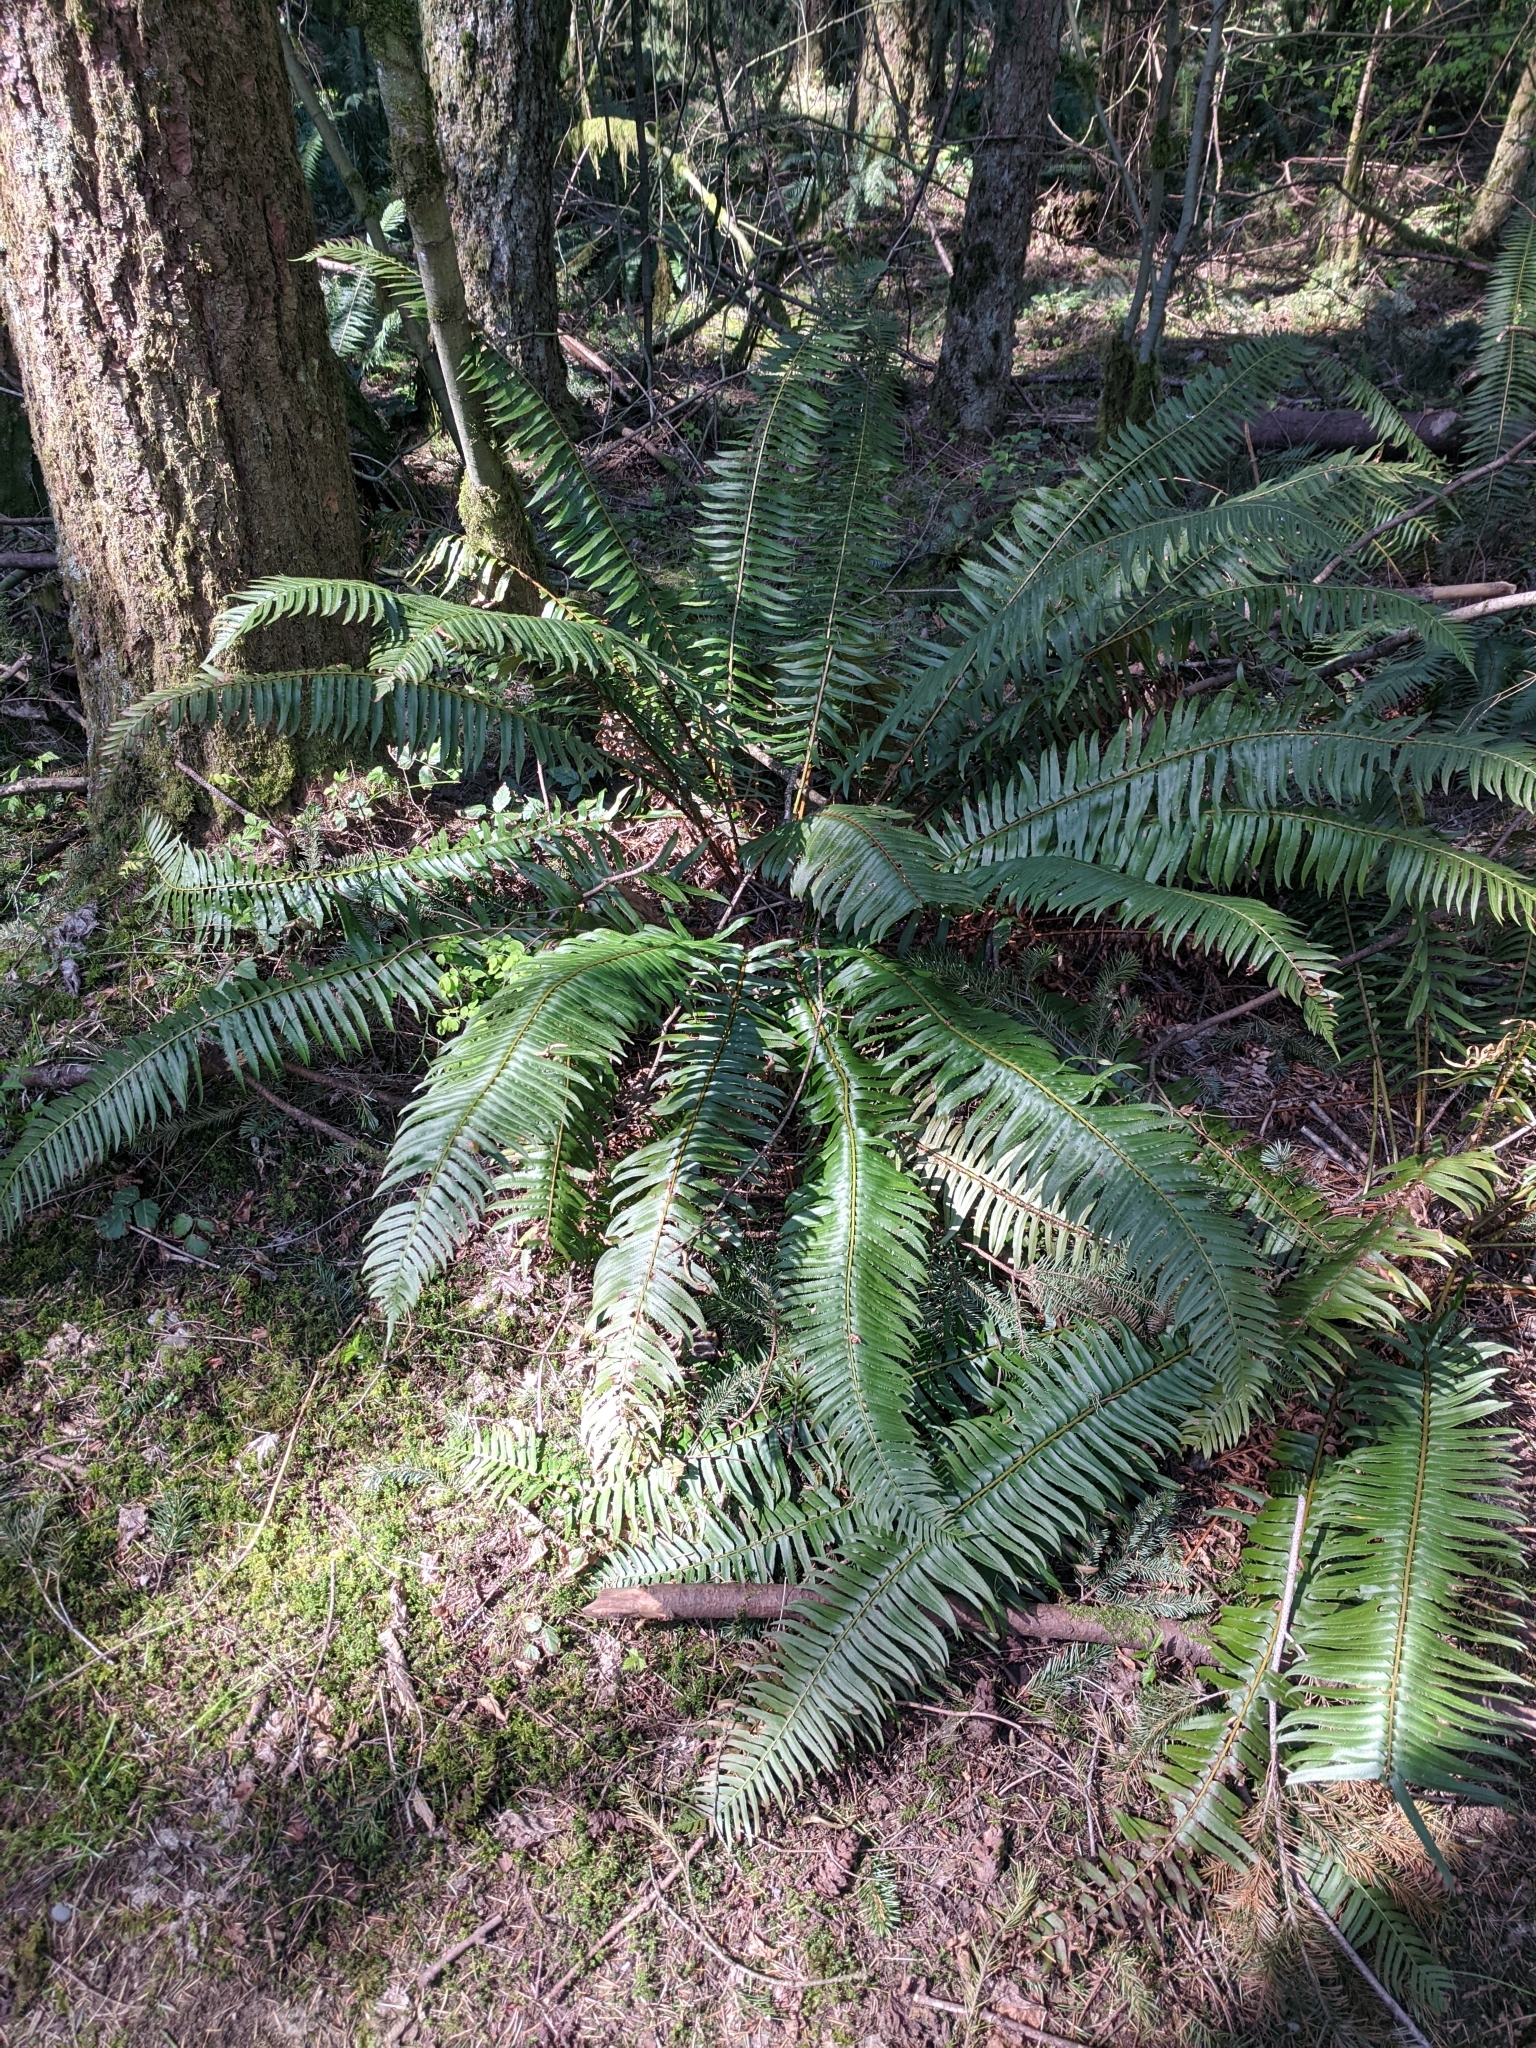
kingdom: Plantae
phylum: Tracheophyta
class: Polypodiopsida
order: Polypodiales
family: Dryopteridaceae
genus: Polystichum
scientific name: Polystichum munitum
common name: Western sword-fern
